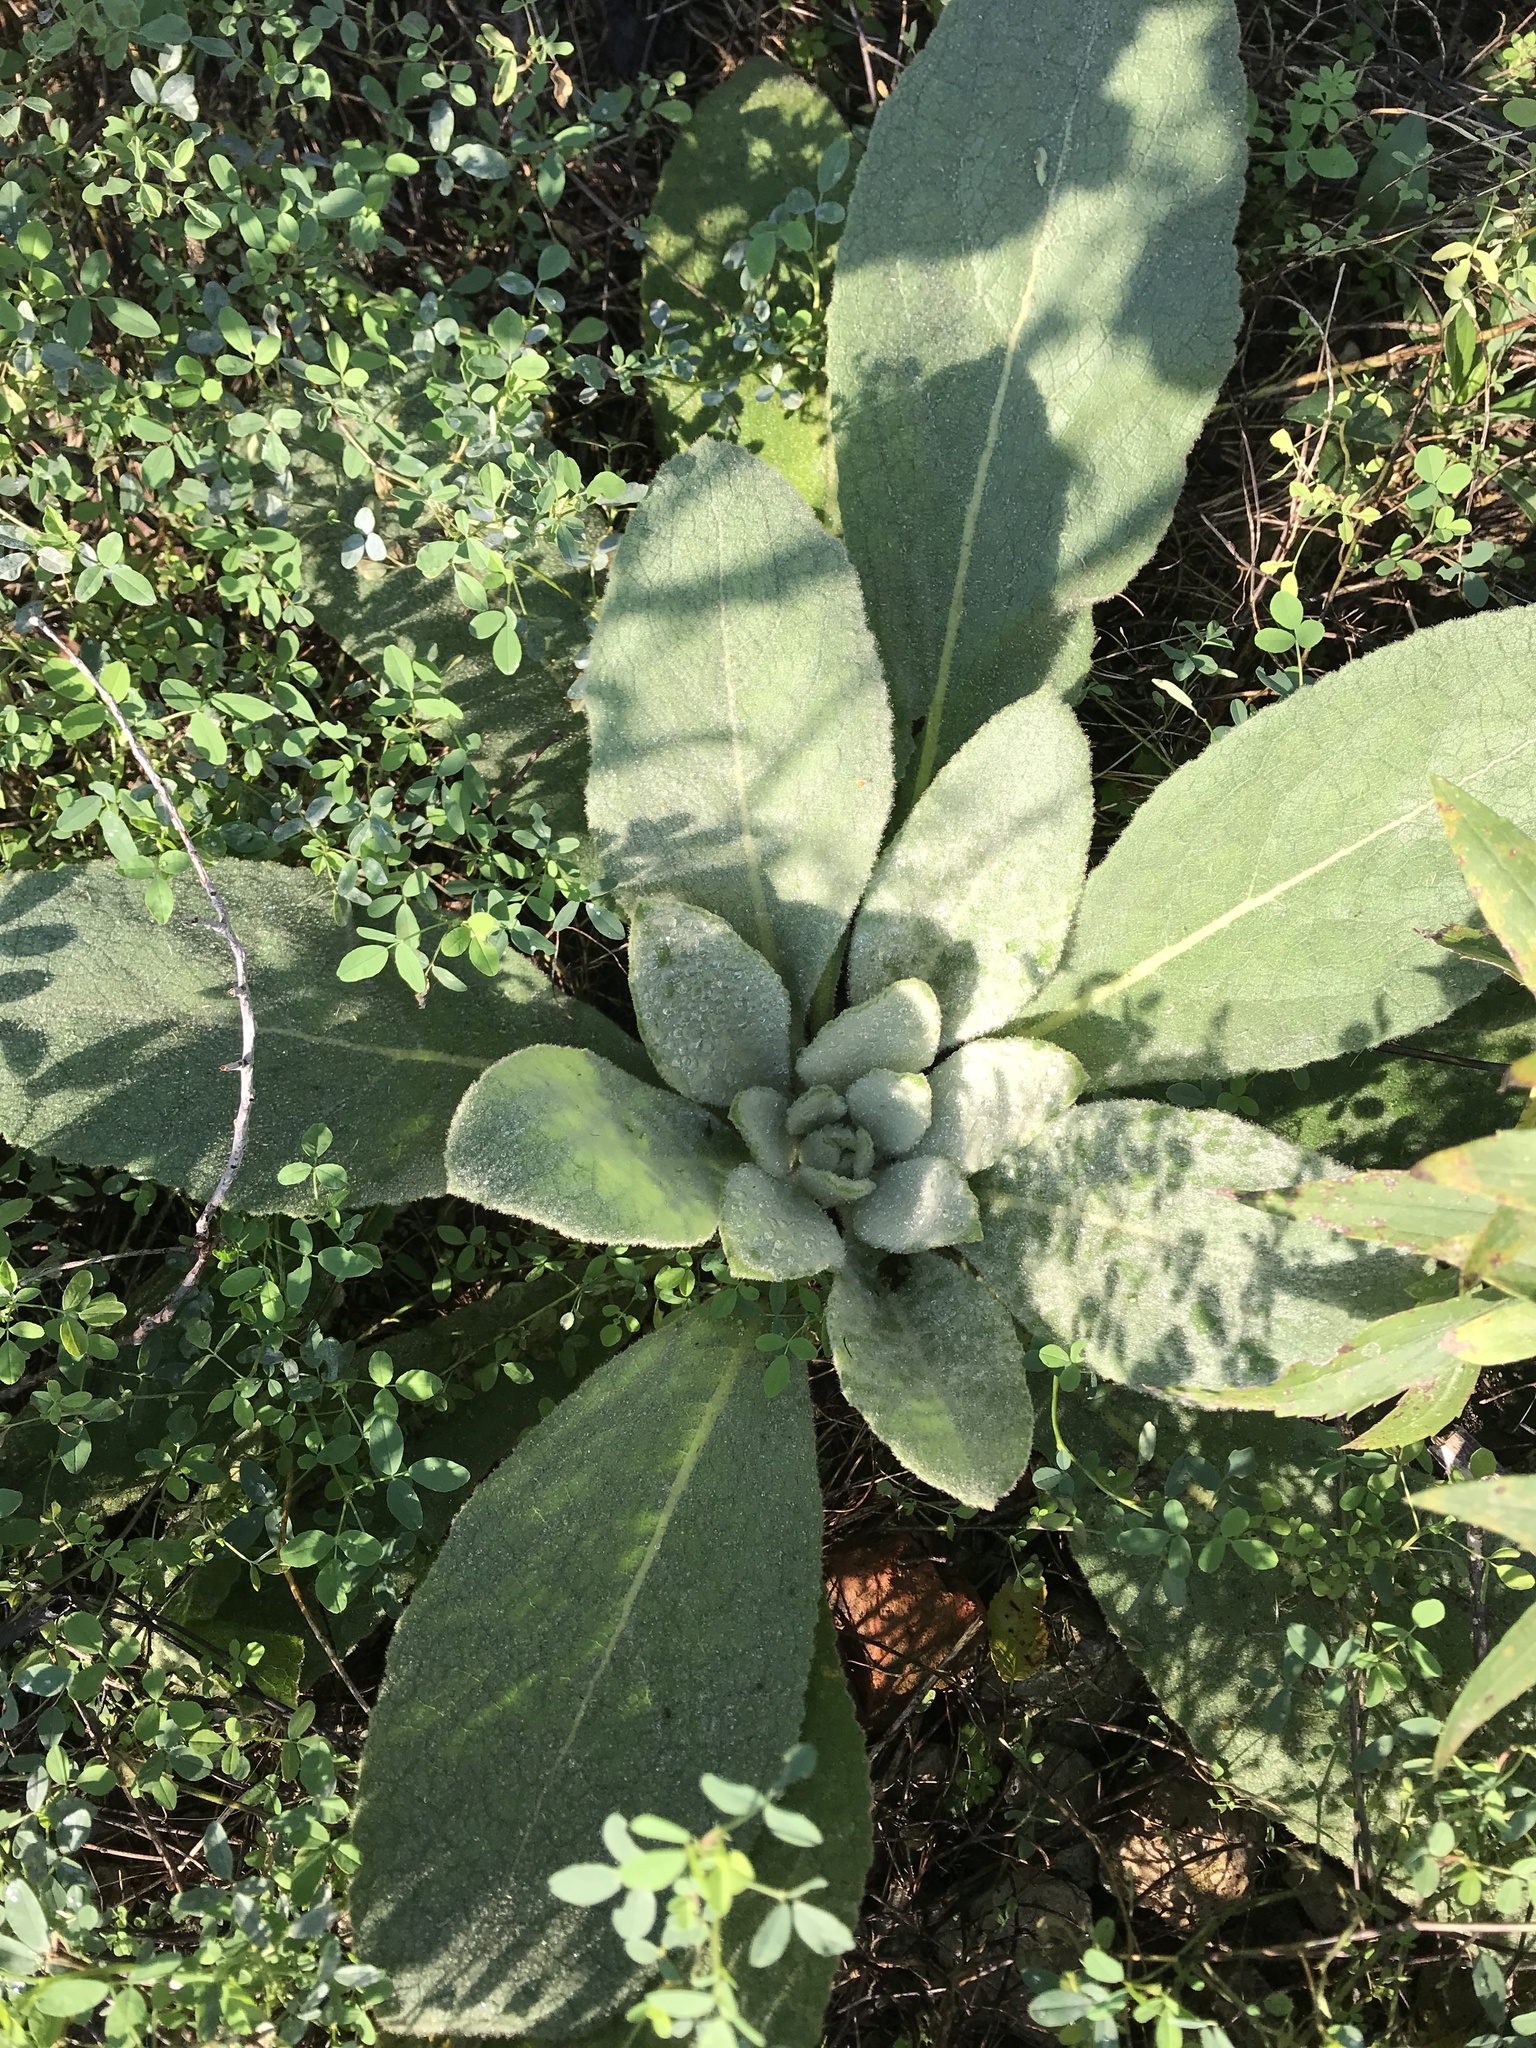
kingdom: Plantae
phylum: Tracheophyta
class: Magnoliopsida
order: Lamiales
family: Scrophulariaceae
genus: Verbascum
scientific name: Verbascum thapsus
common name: Common mullein
